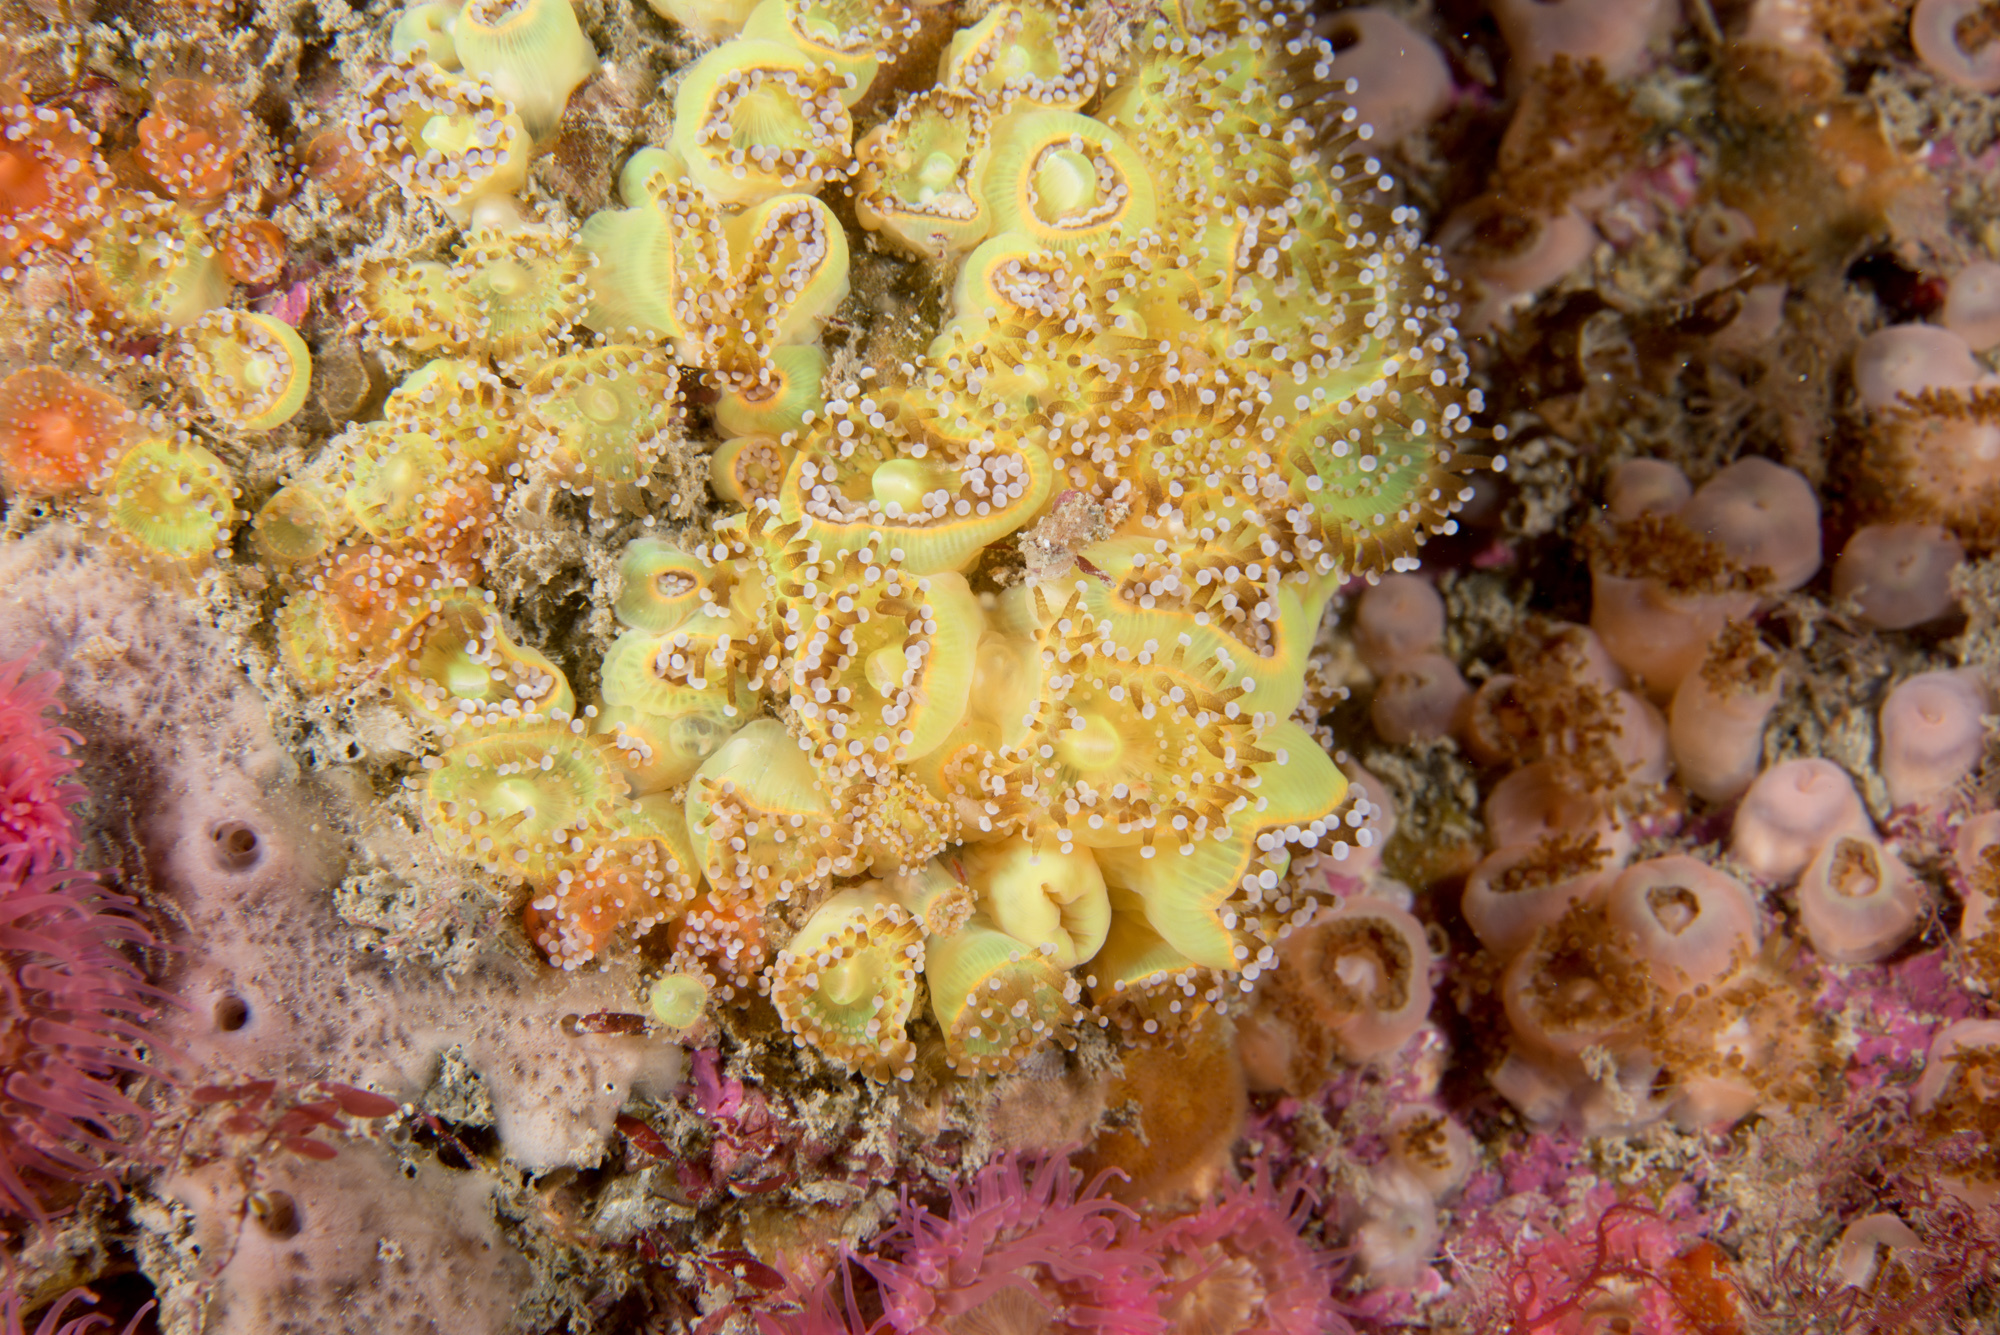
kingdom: Animalia
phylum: Cnidaria
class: Anthozoa
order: Corallimorpharia
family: Corallimorphidae
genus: Corynactis
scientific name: Corynactis viridis
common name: Jewel anemone
